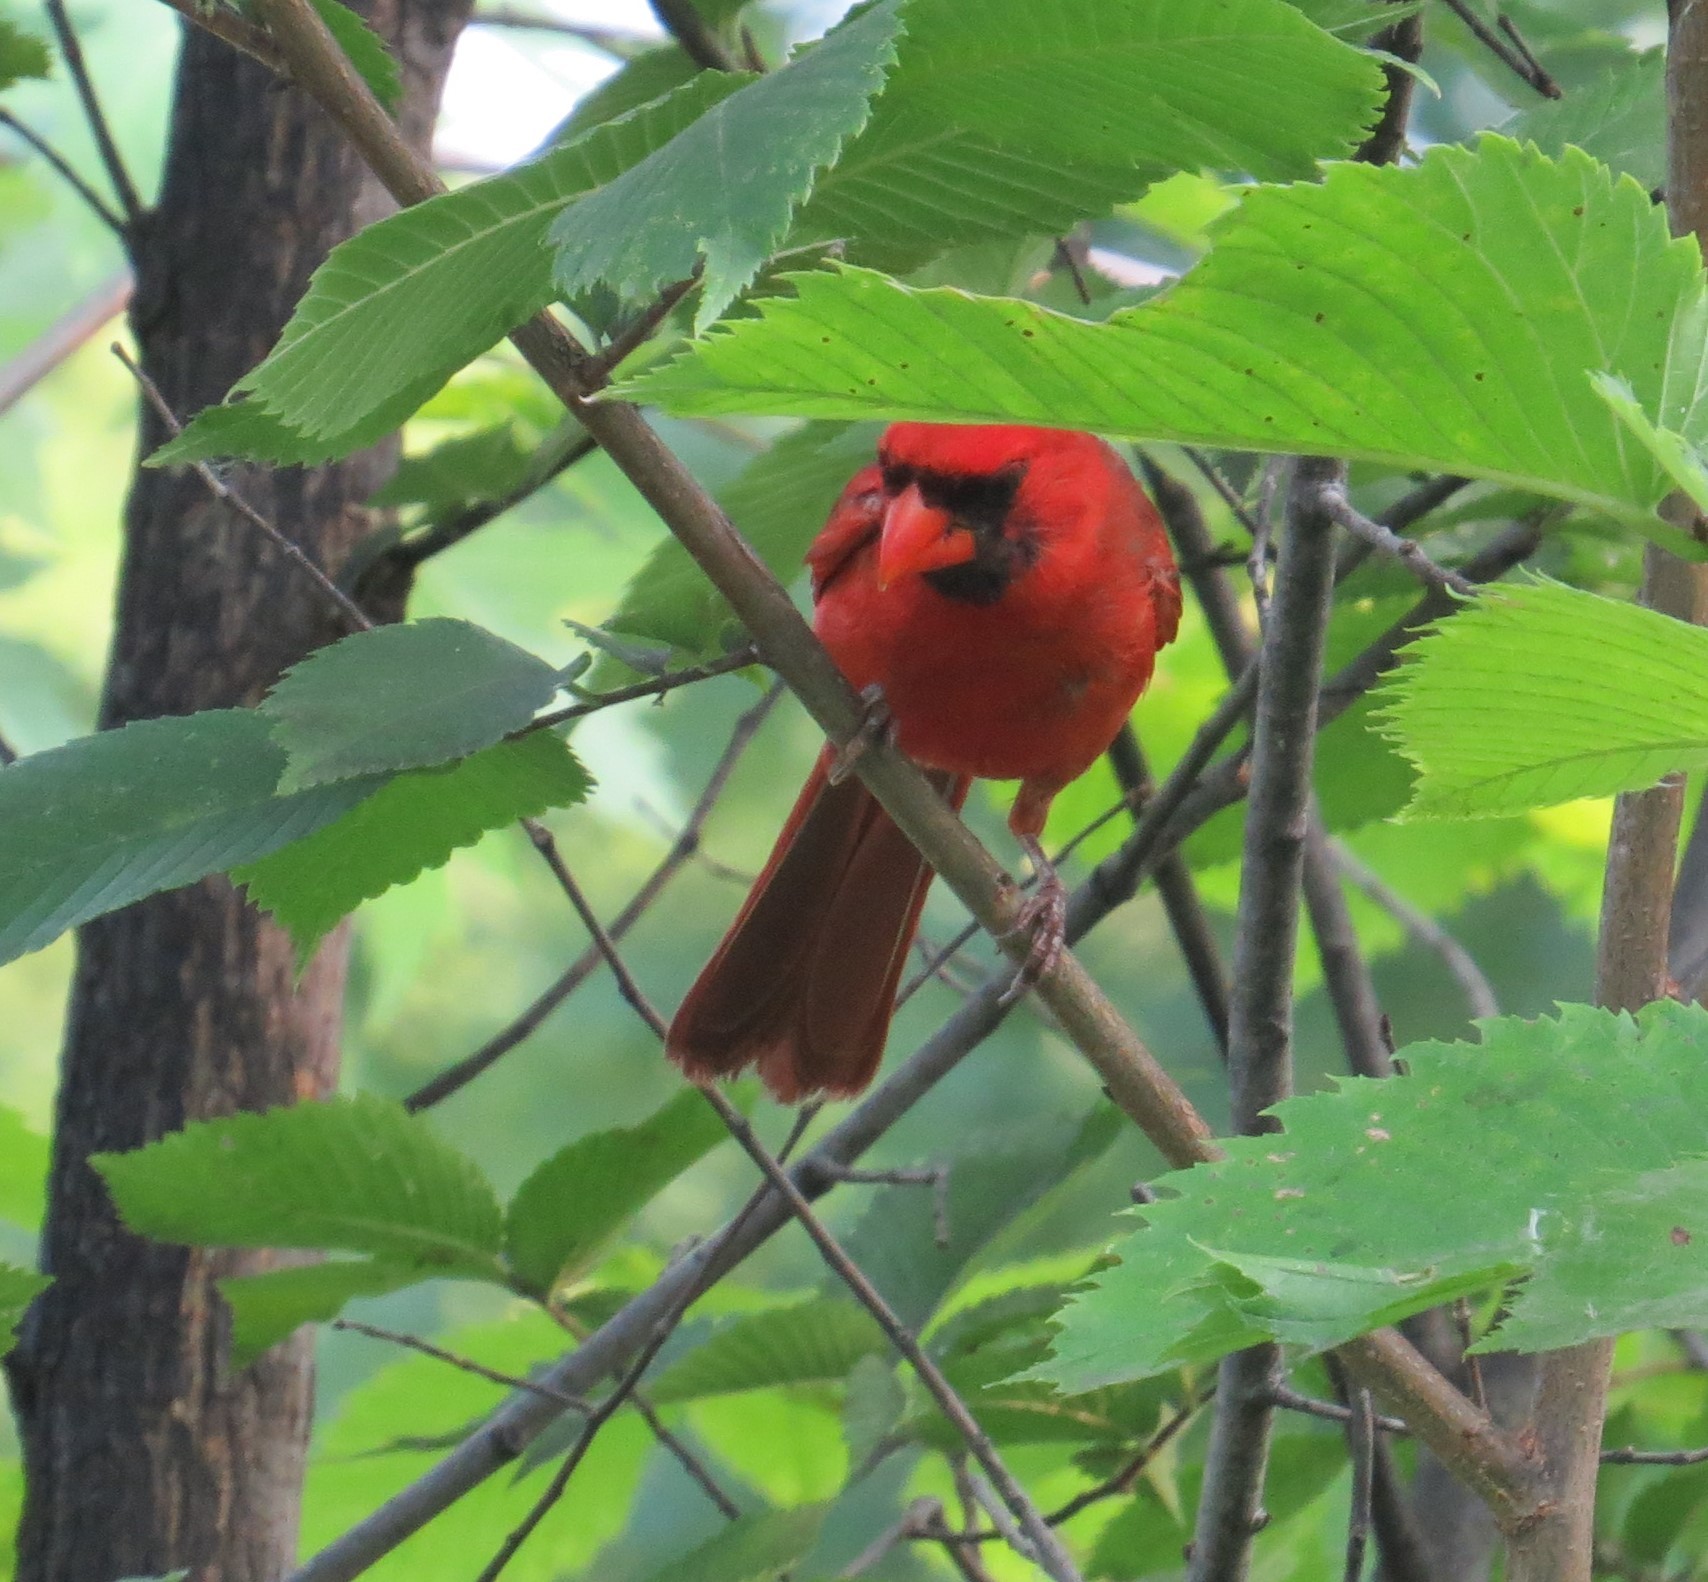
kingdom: Animalia
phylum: Chordata
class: Aves
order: Passeriformes
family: Cardinalidae
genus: Cardinalis
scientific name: Cardinalis cardinalis
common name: Northern cardinal
